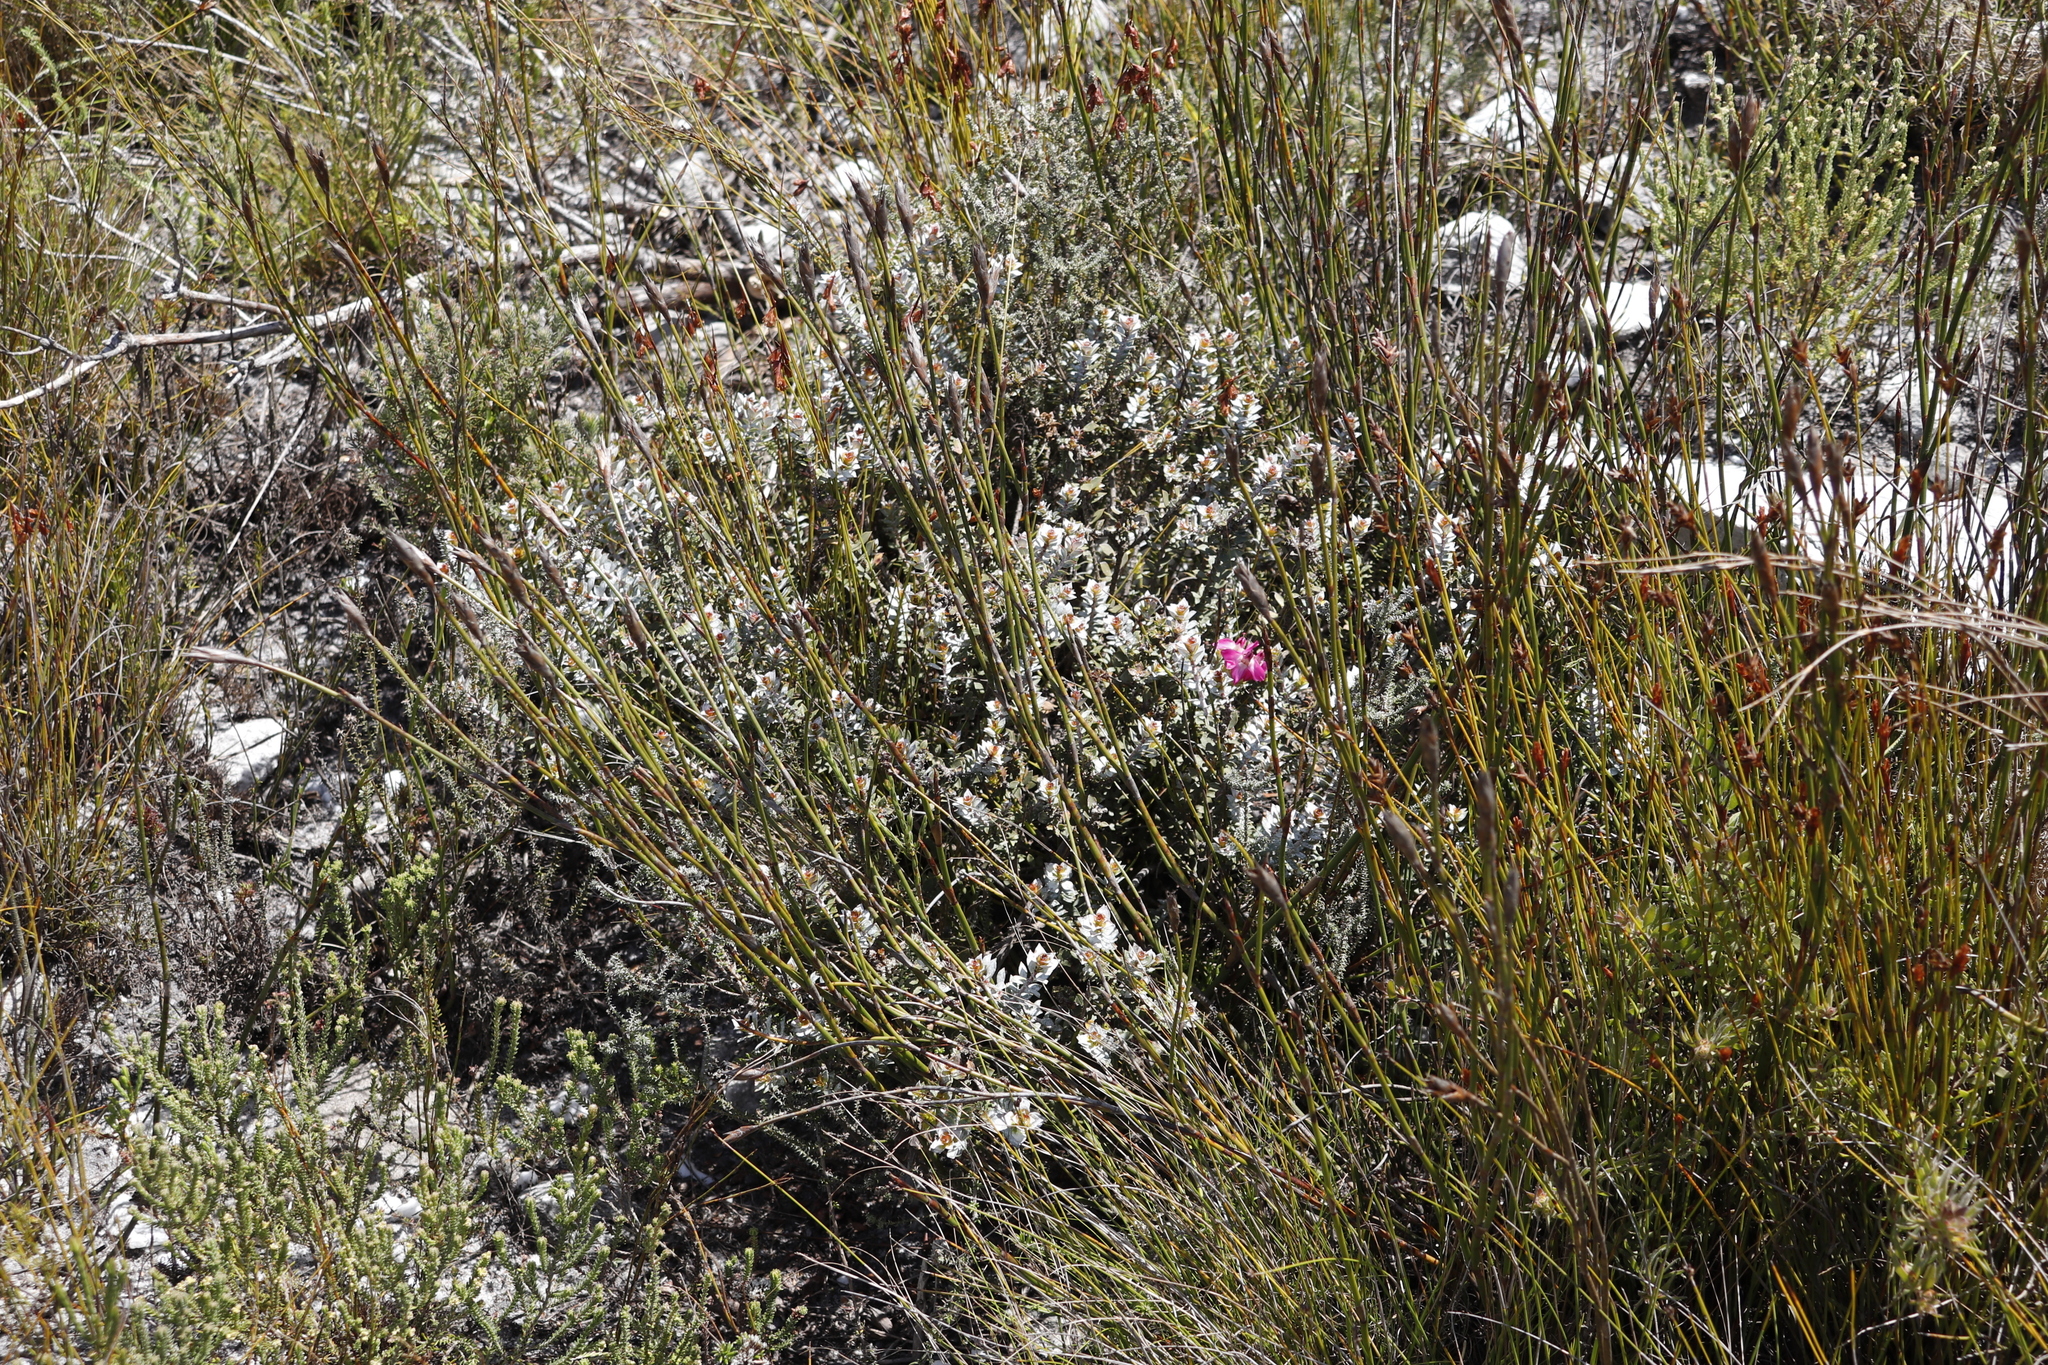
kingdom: Plantae
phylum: Tracheophyta
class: Magnoliopsida
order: Myrtales
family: Penaeaceae
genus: Saltera
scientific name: Saltera sarcocolla
